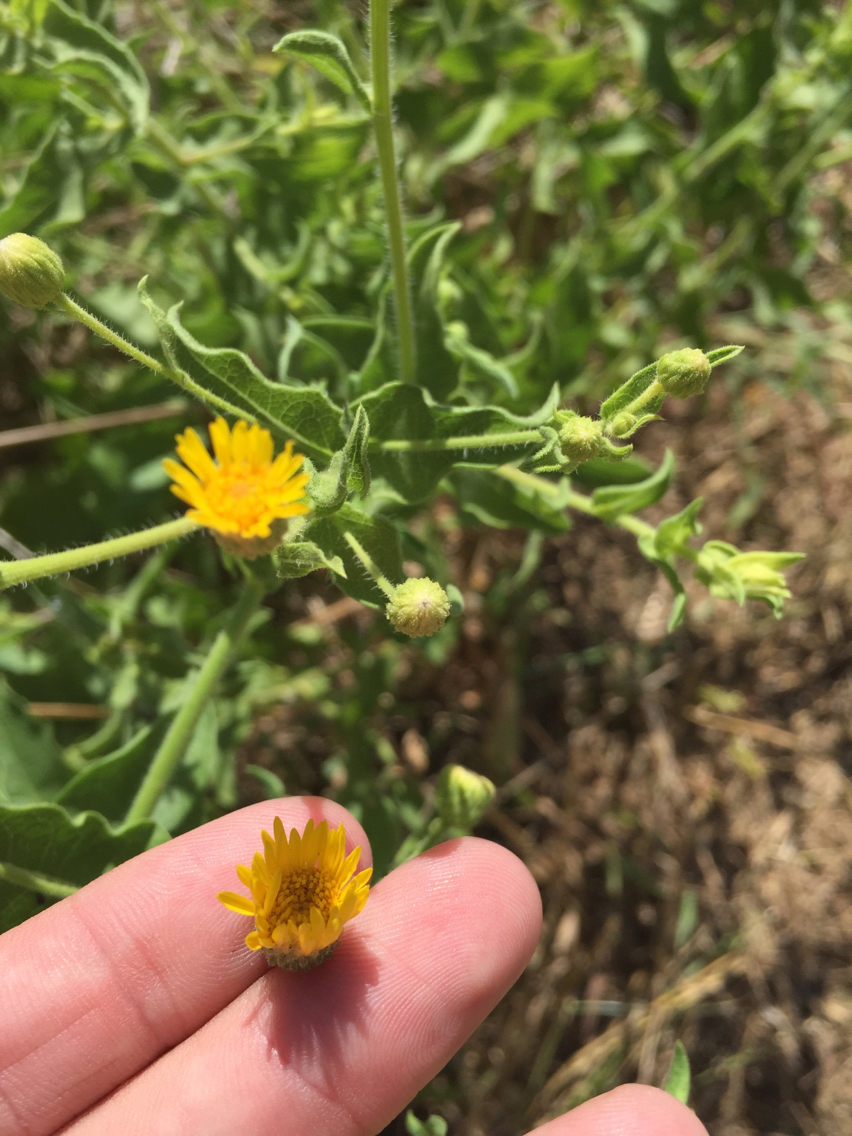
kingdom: Plantae
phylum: Tracheophyta
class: Magnoliopsida
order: Asterales
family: Asteraceae
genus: Heterotheca
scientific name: Heterotheca subaxillaris
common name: Camphorweed
